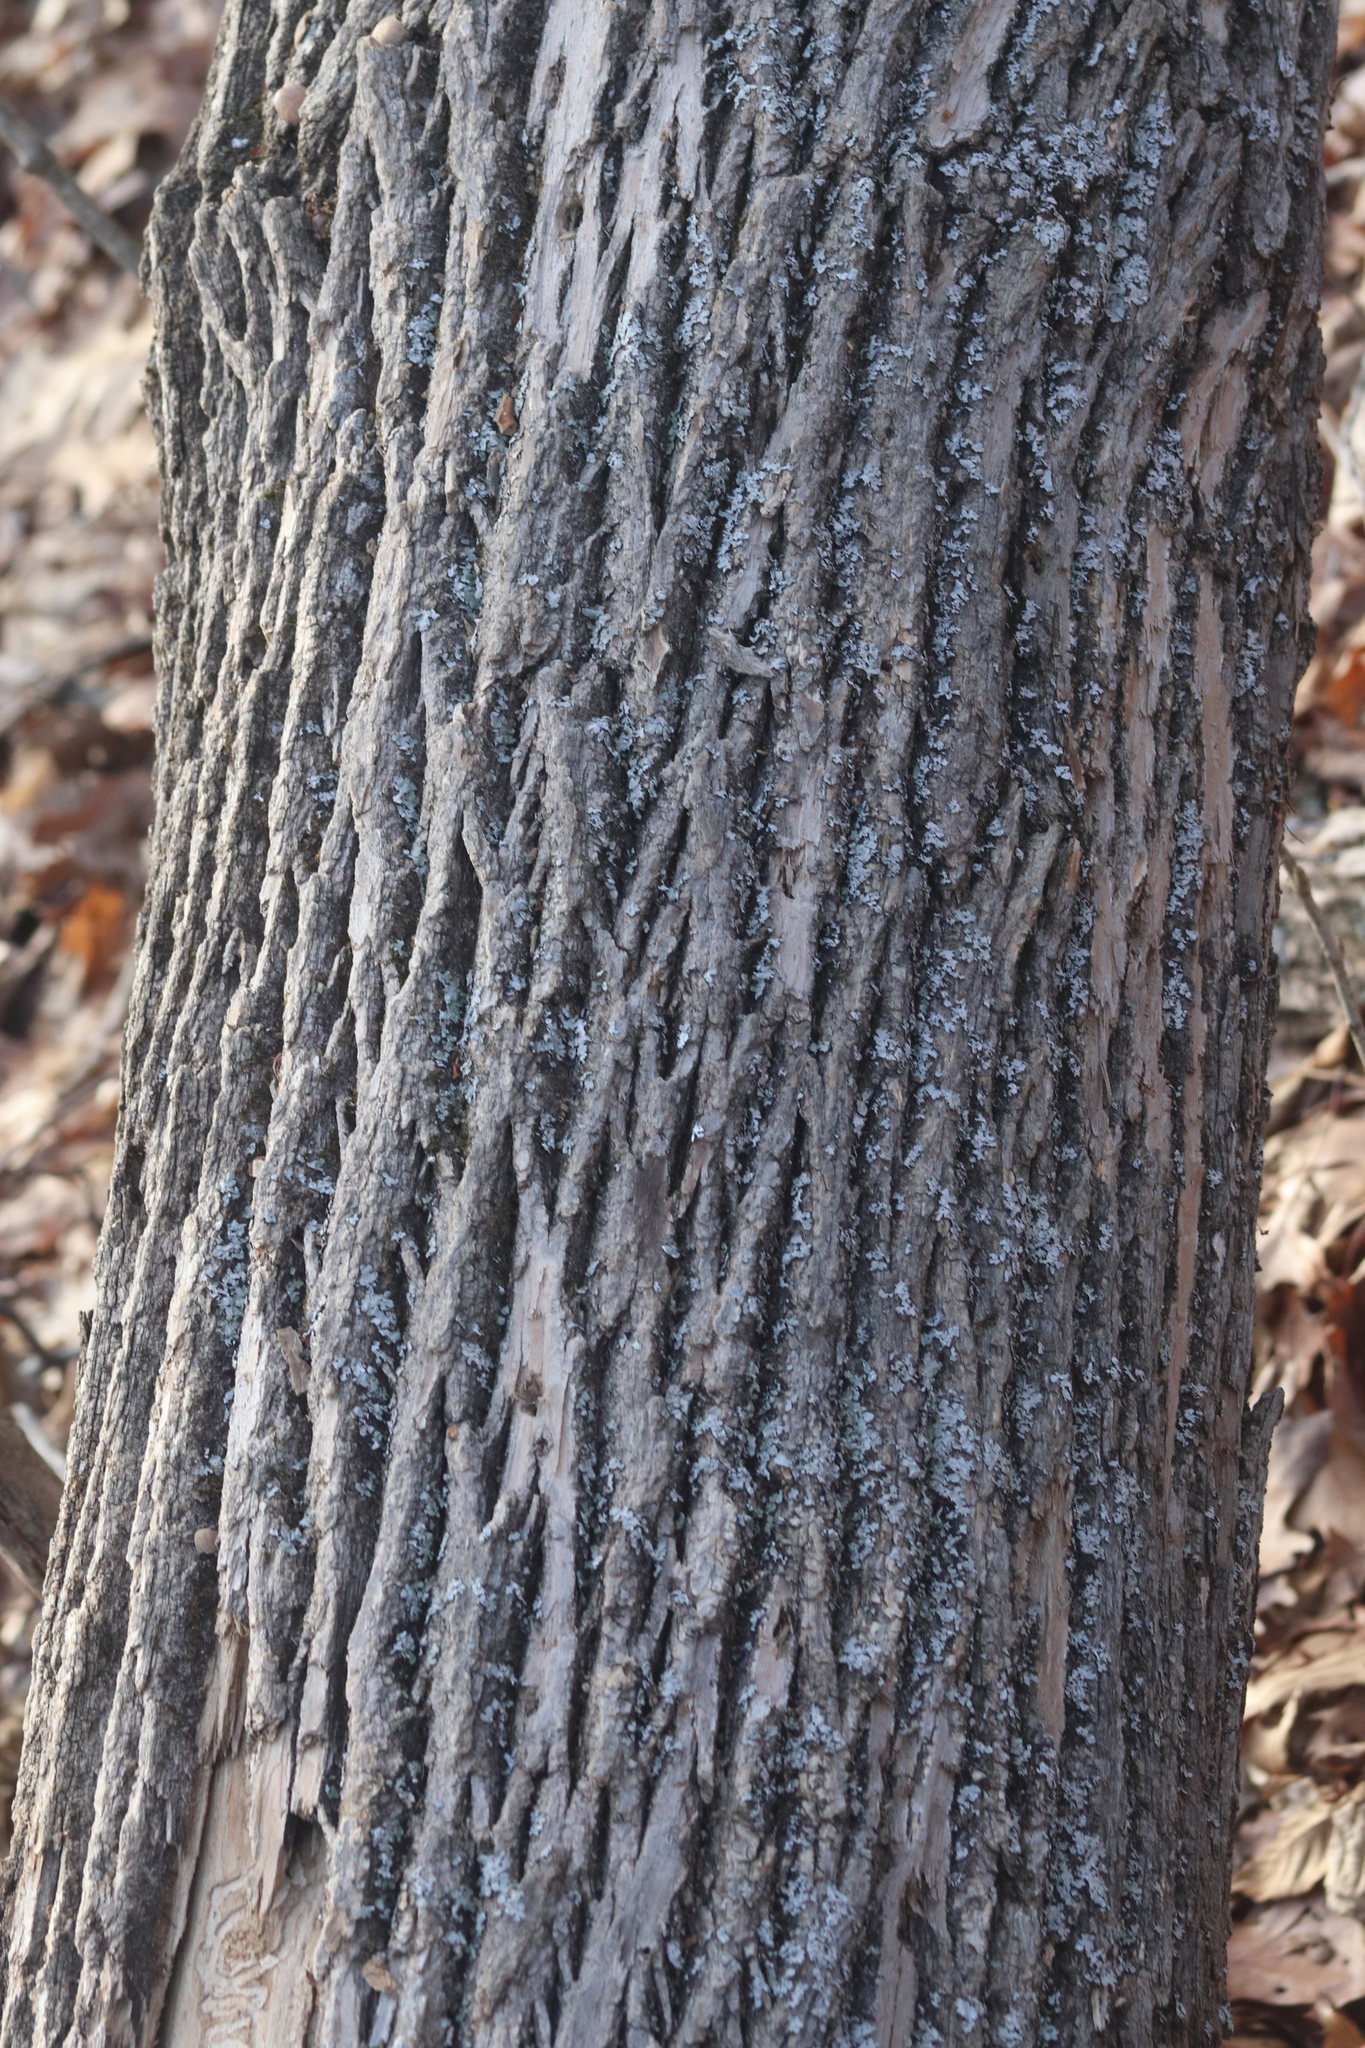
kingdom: Animalia
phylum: Arthropoda
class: Insecta
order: Coleoptera
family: Buprestidae
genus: Agrilus
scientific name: Agrilus planipennis
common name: Emerald ash borer
